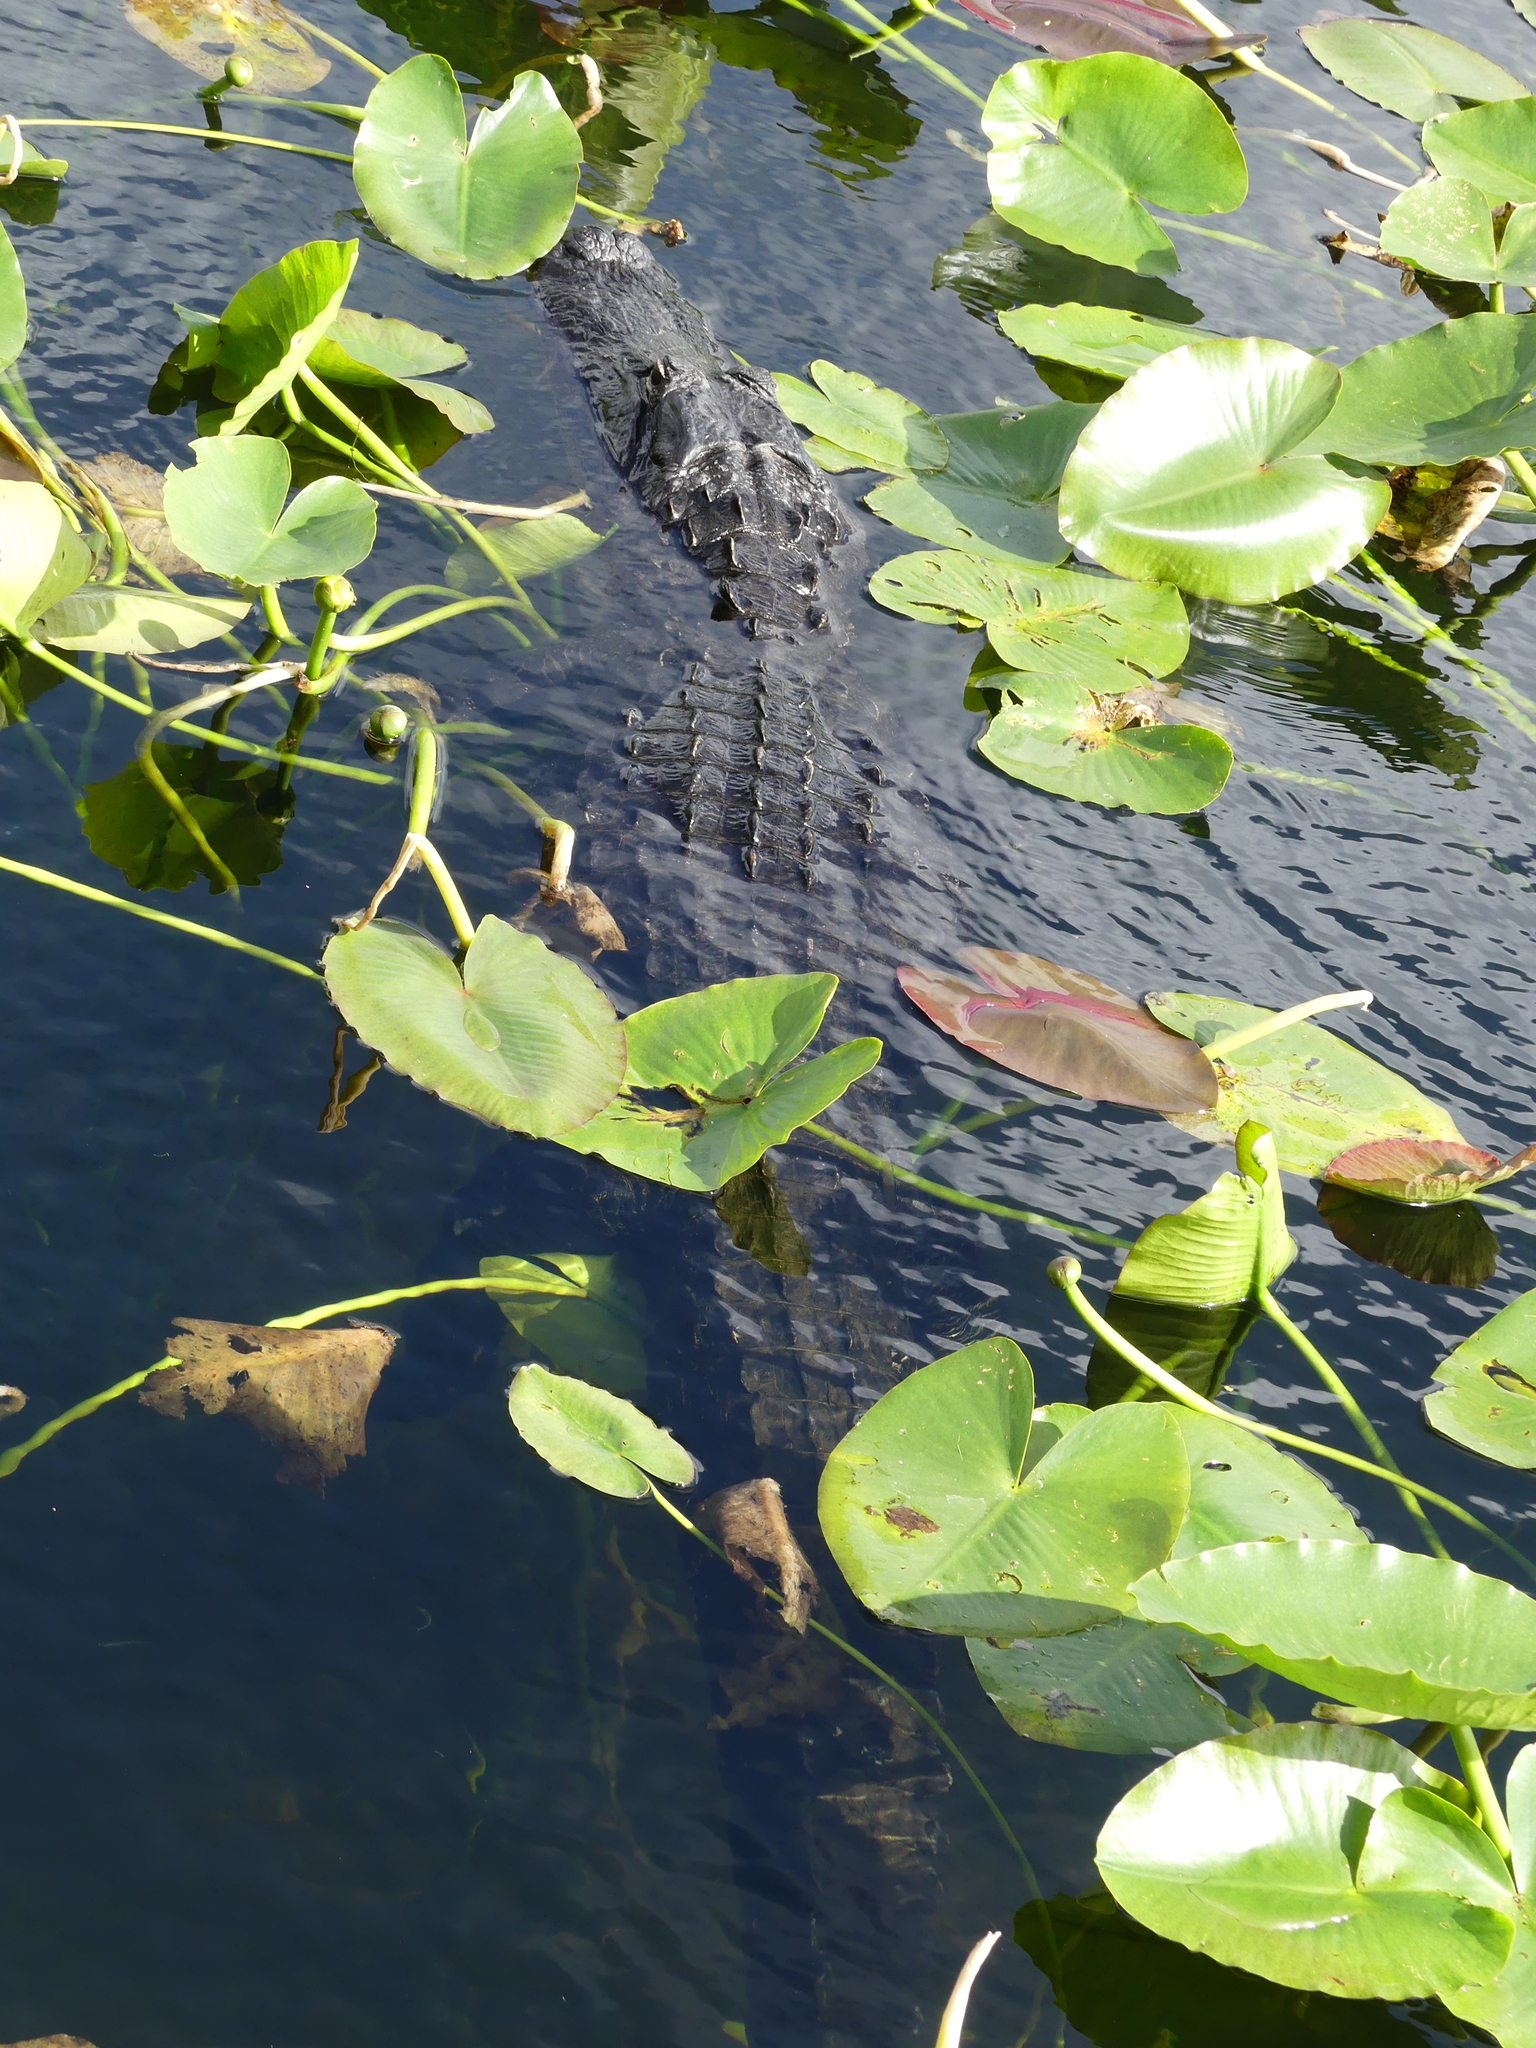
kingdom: Animalia
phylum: Chordata
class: Crocodylia
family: Alligatoridae
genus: Alligator
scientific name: Alligator mississippiensis
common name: American alligator
